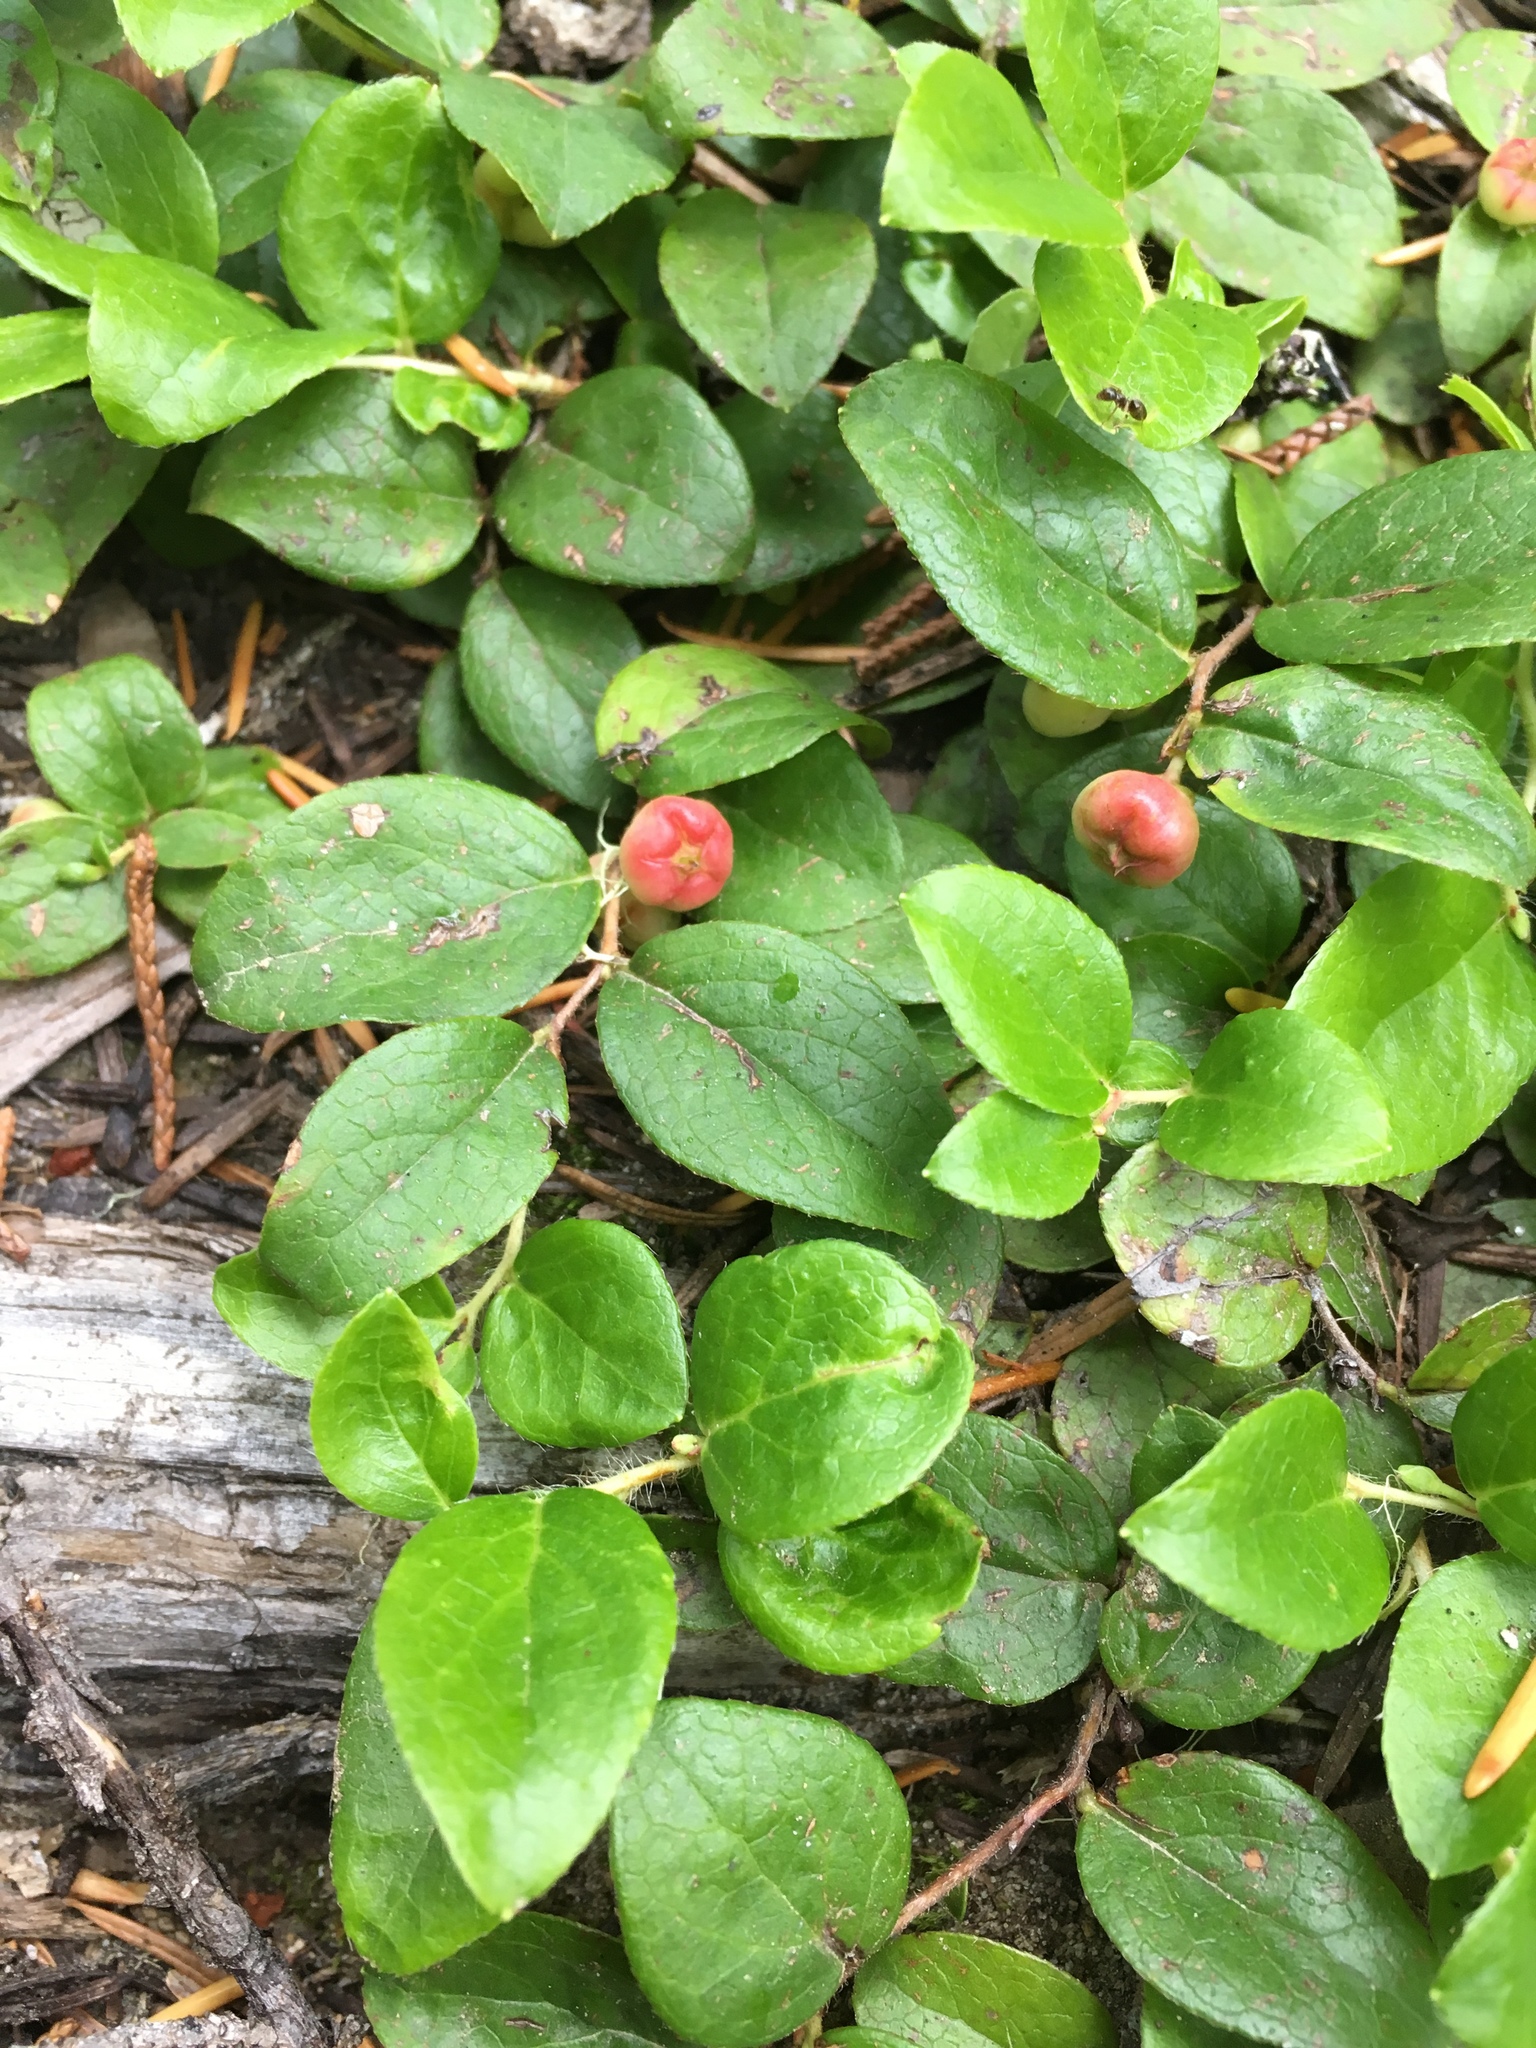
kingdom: Plantae
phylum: Tracheophyta
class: Magnoliopsida
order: Ericales
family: Ericaceae
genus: Gaultheria
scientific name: Gaultheria ovatifolia
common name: Oregon wintergreen
